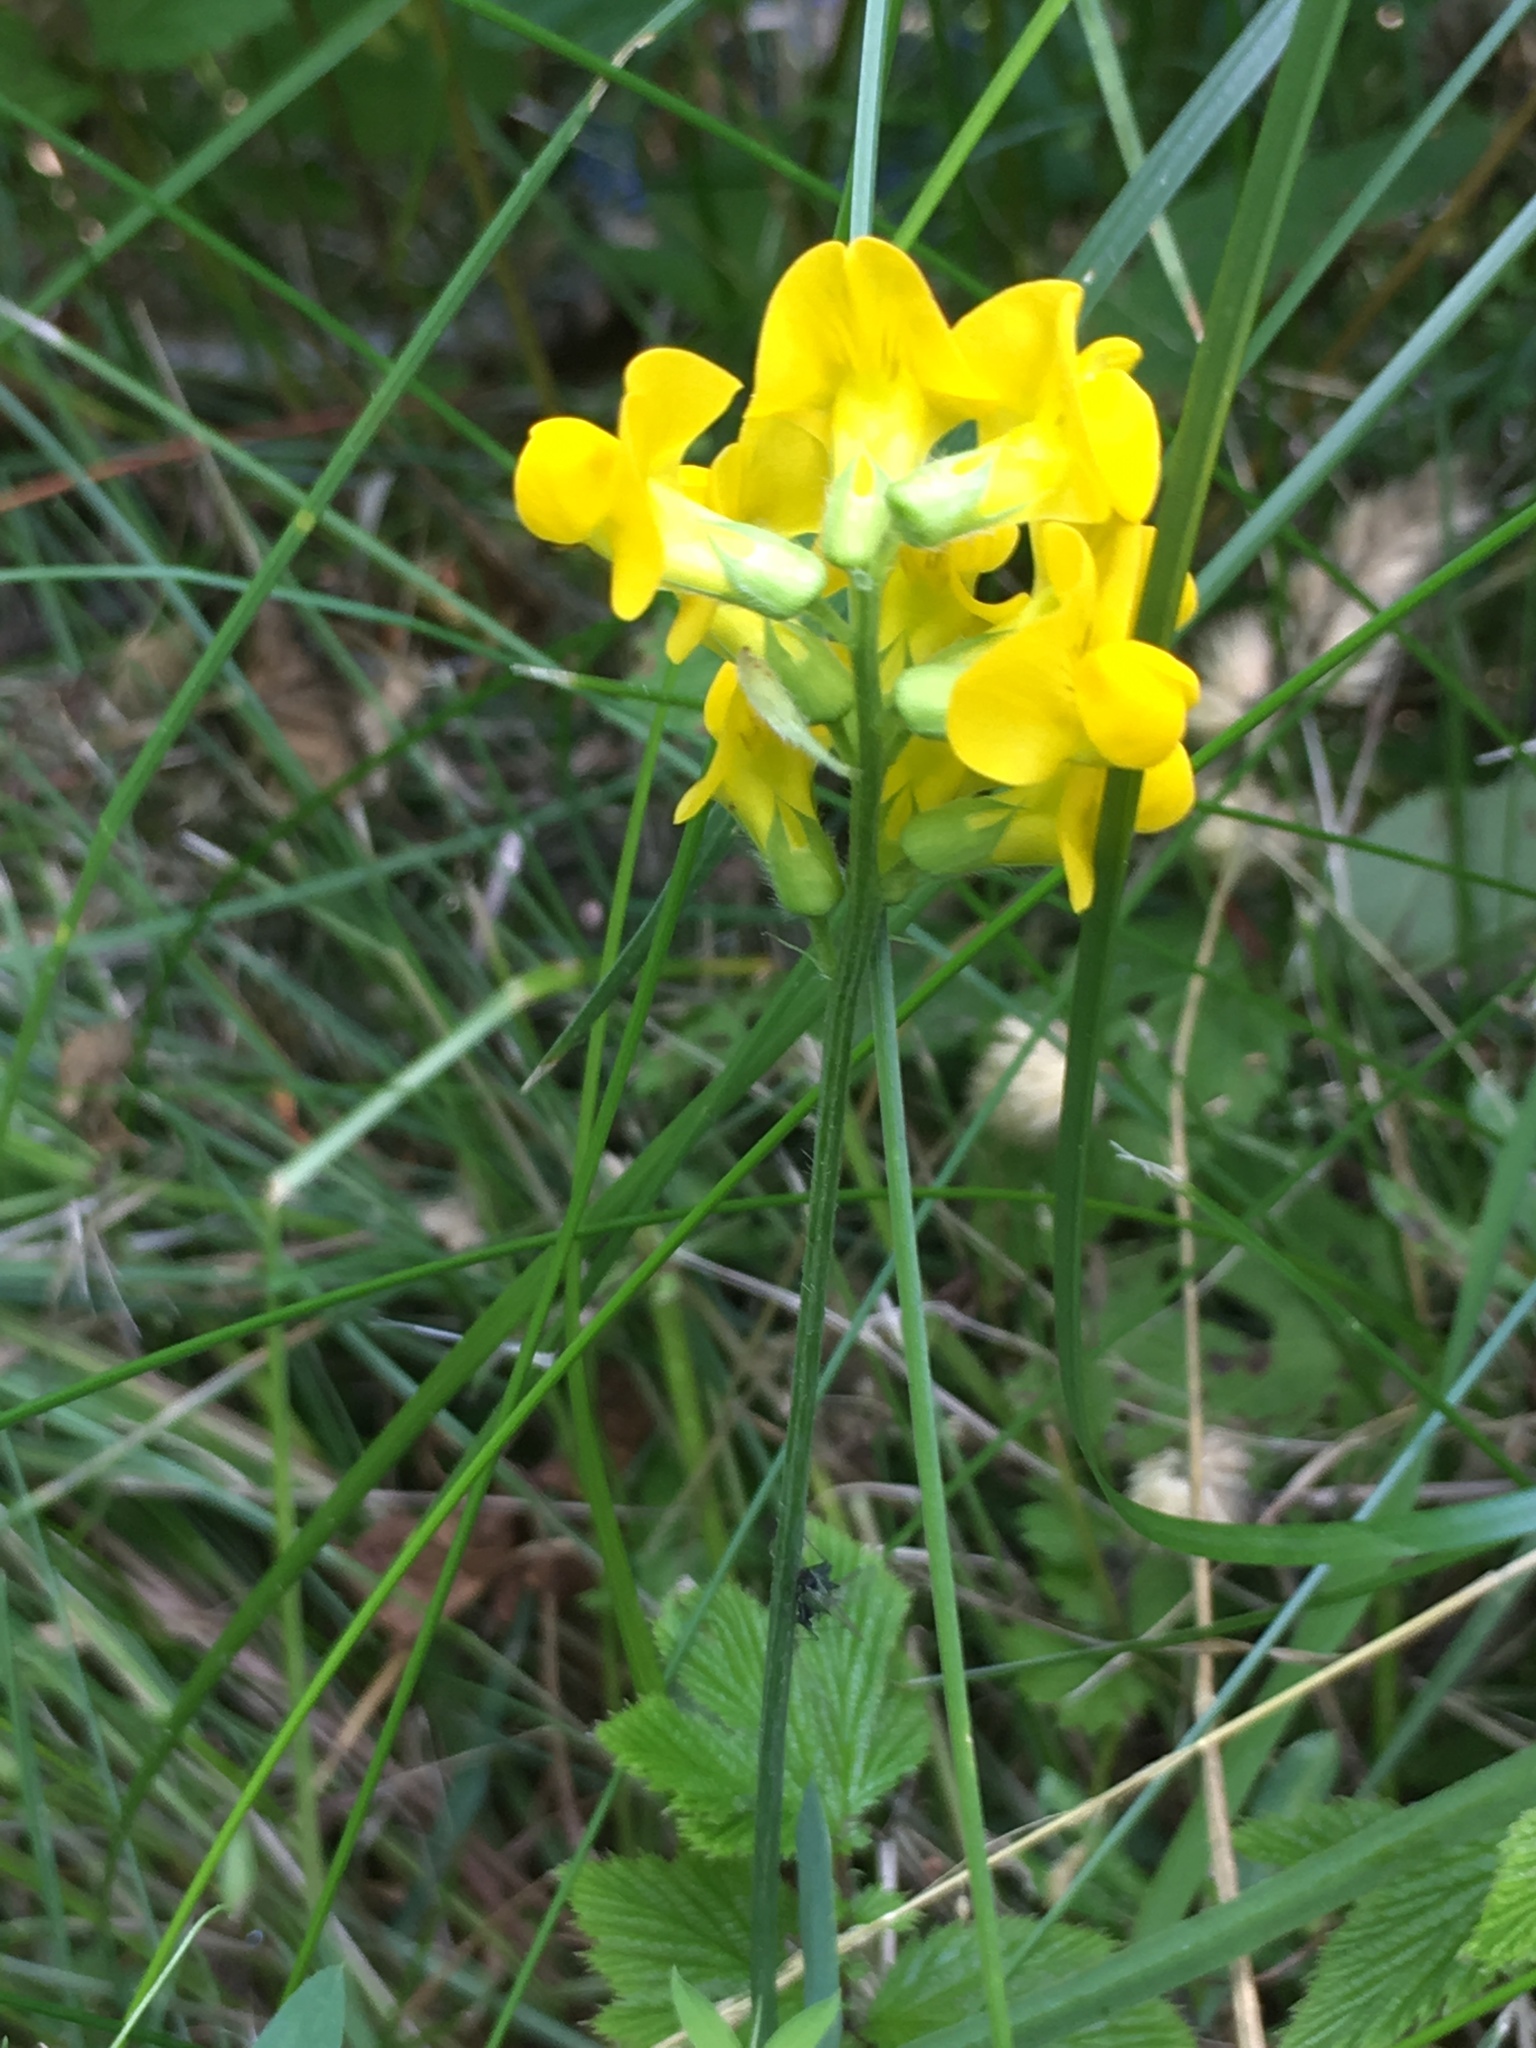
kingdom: Plantae
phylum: Tracheophyta
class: Magnoliopsida
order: Fabales
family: Fabaceae
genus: Lathyrus
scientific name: Lathyrus pratensis
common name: Meadow vetchling
